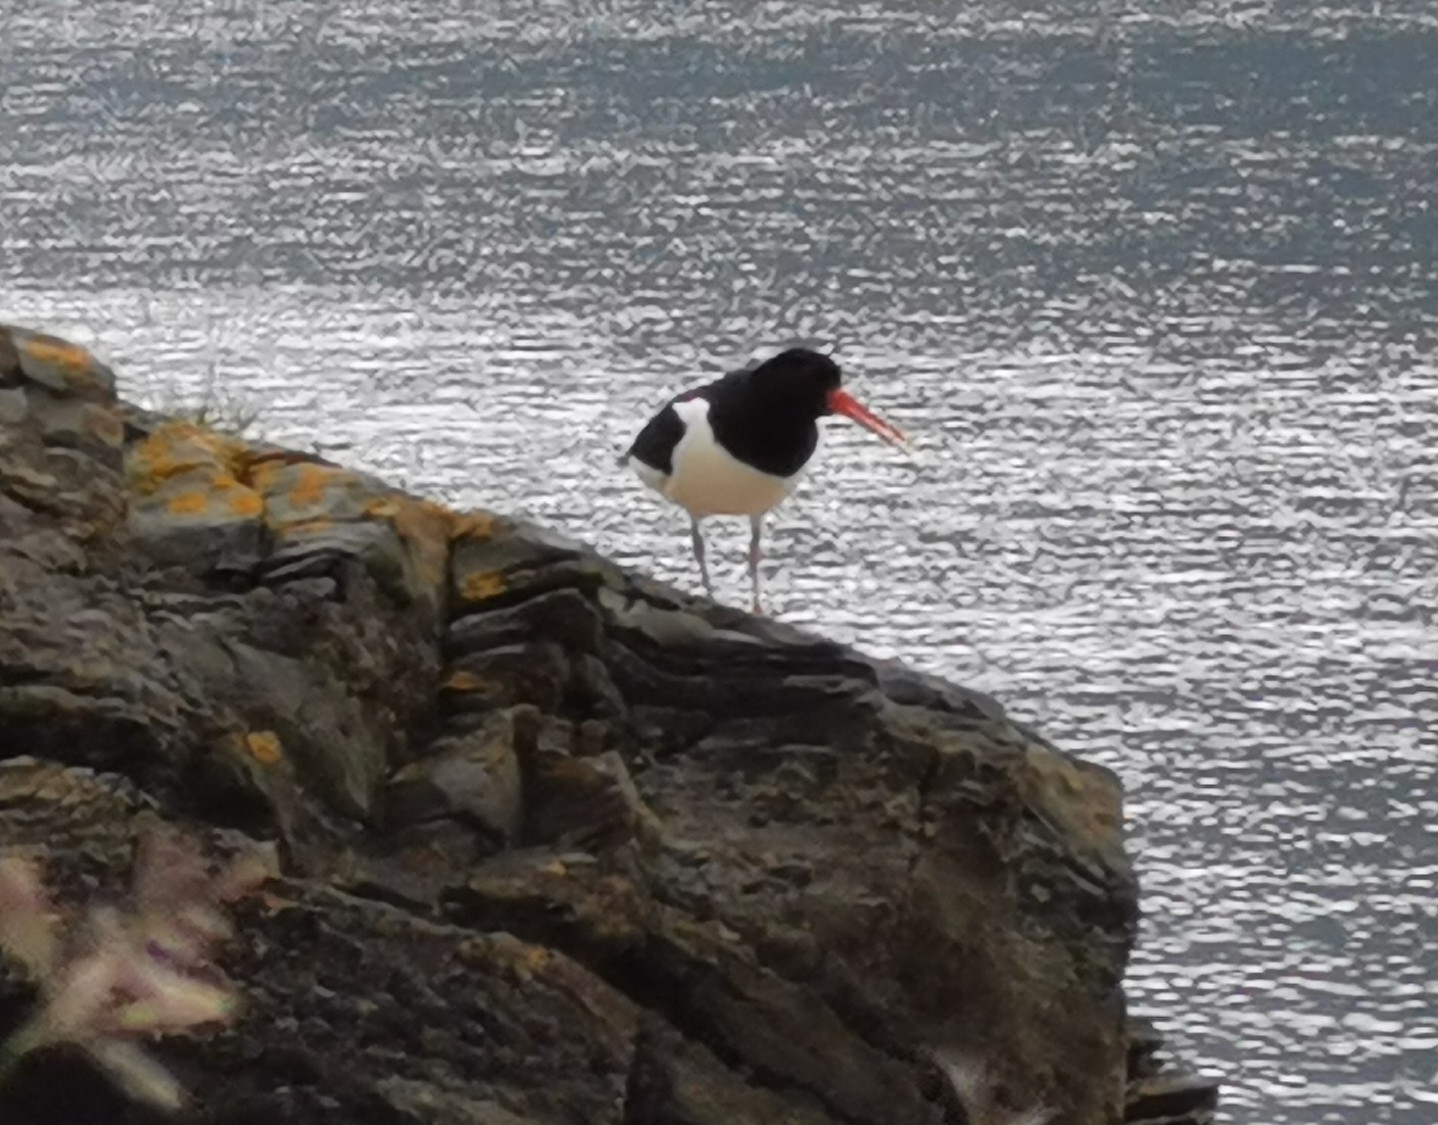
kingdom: Animalia
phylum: Chordata
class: Aves
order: Charadriiformes
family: Haematopodidae
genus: Haematopus
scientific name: Haematopus ostralegus
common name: Eurasian oystercatcher
